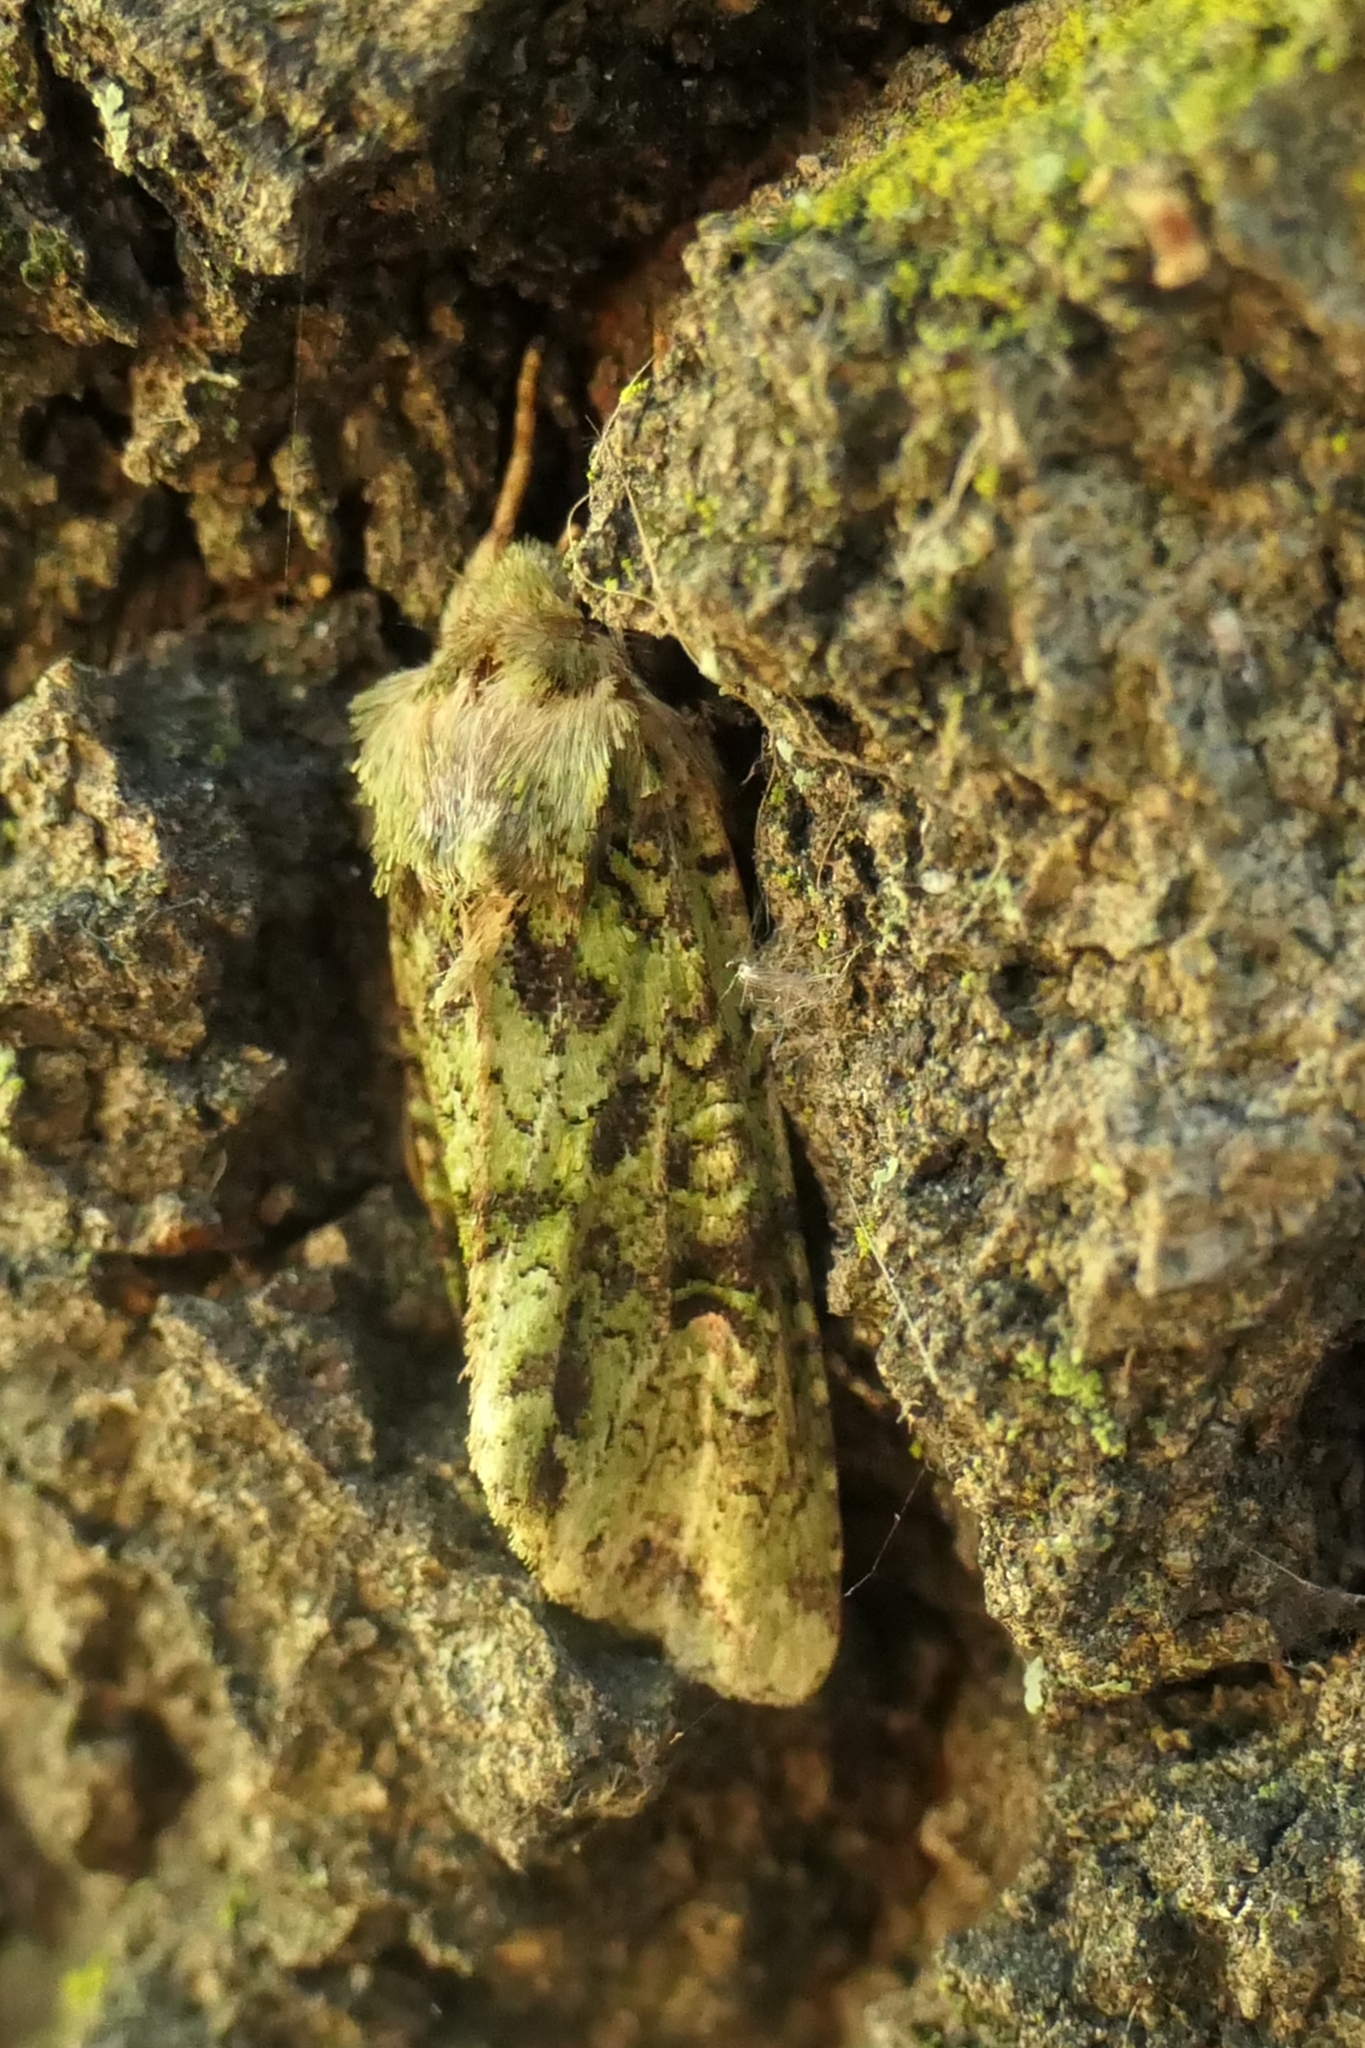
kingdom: Animalia
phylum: Arthropoda
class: Insecta
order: Lepidoptera
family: Noctuidae
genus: Ichneutica
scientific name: Ichneutica
